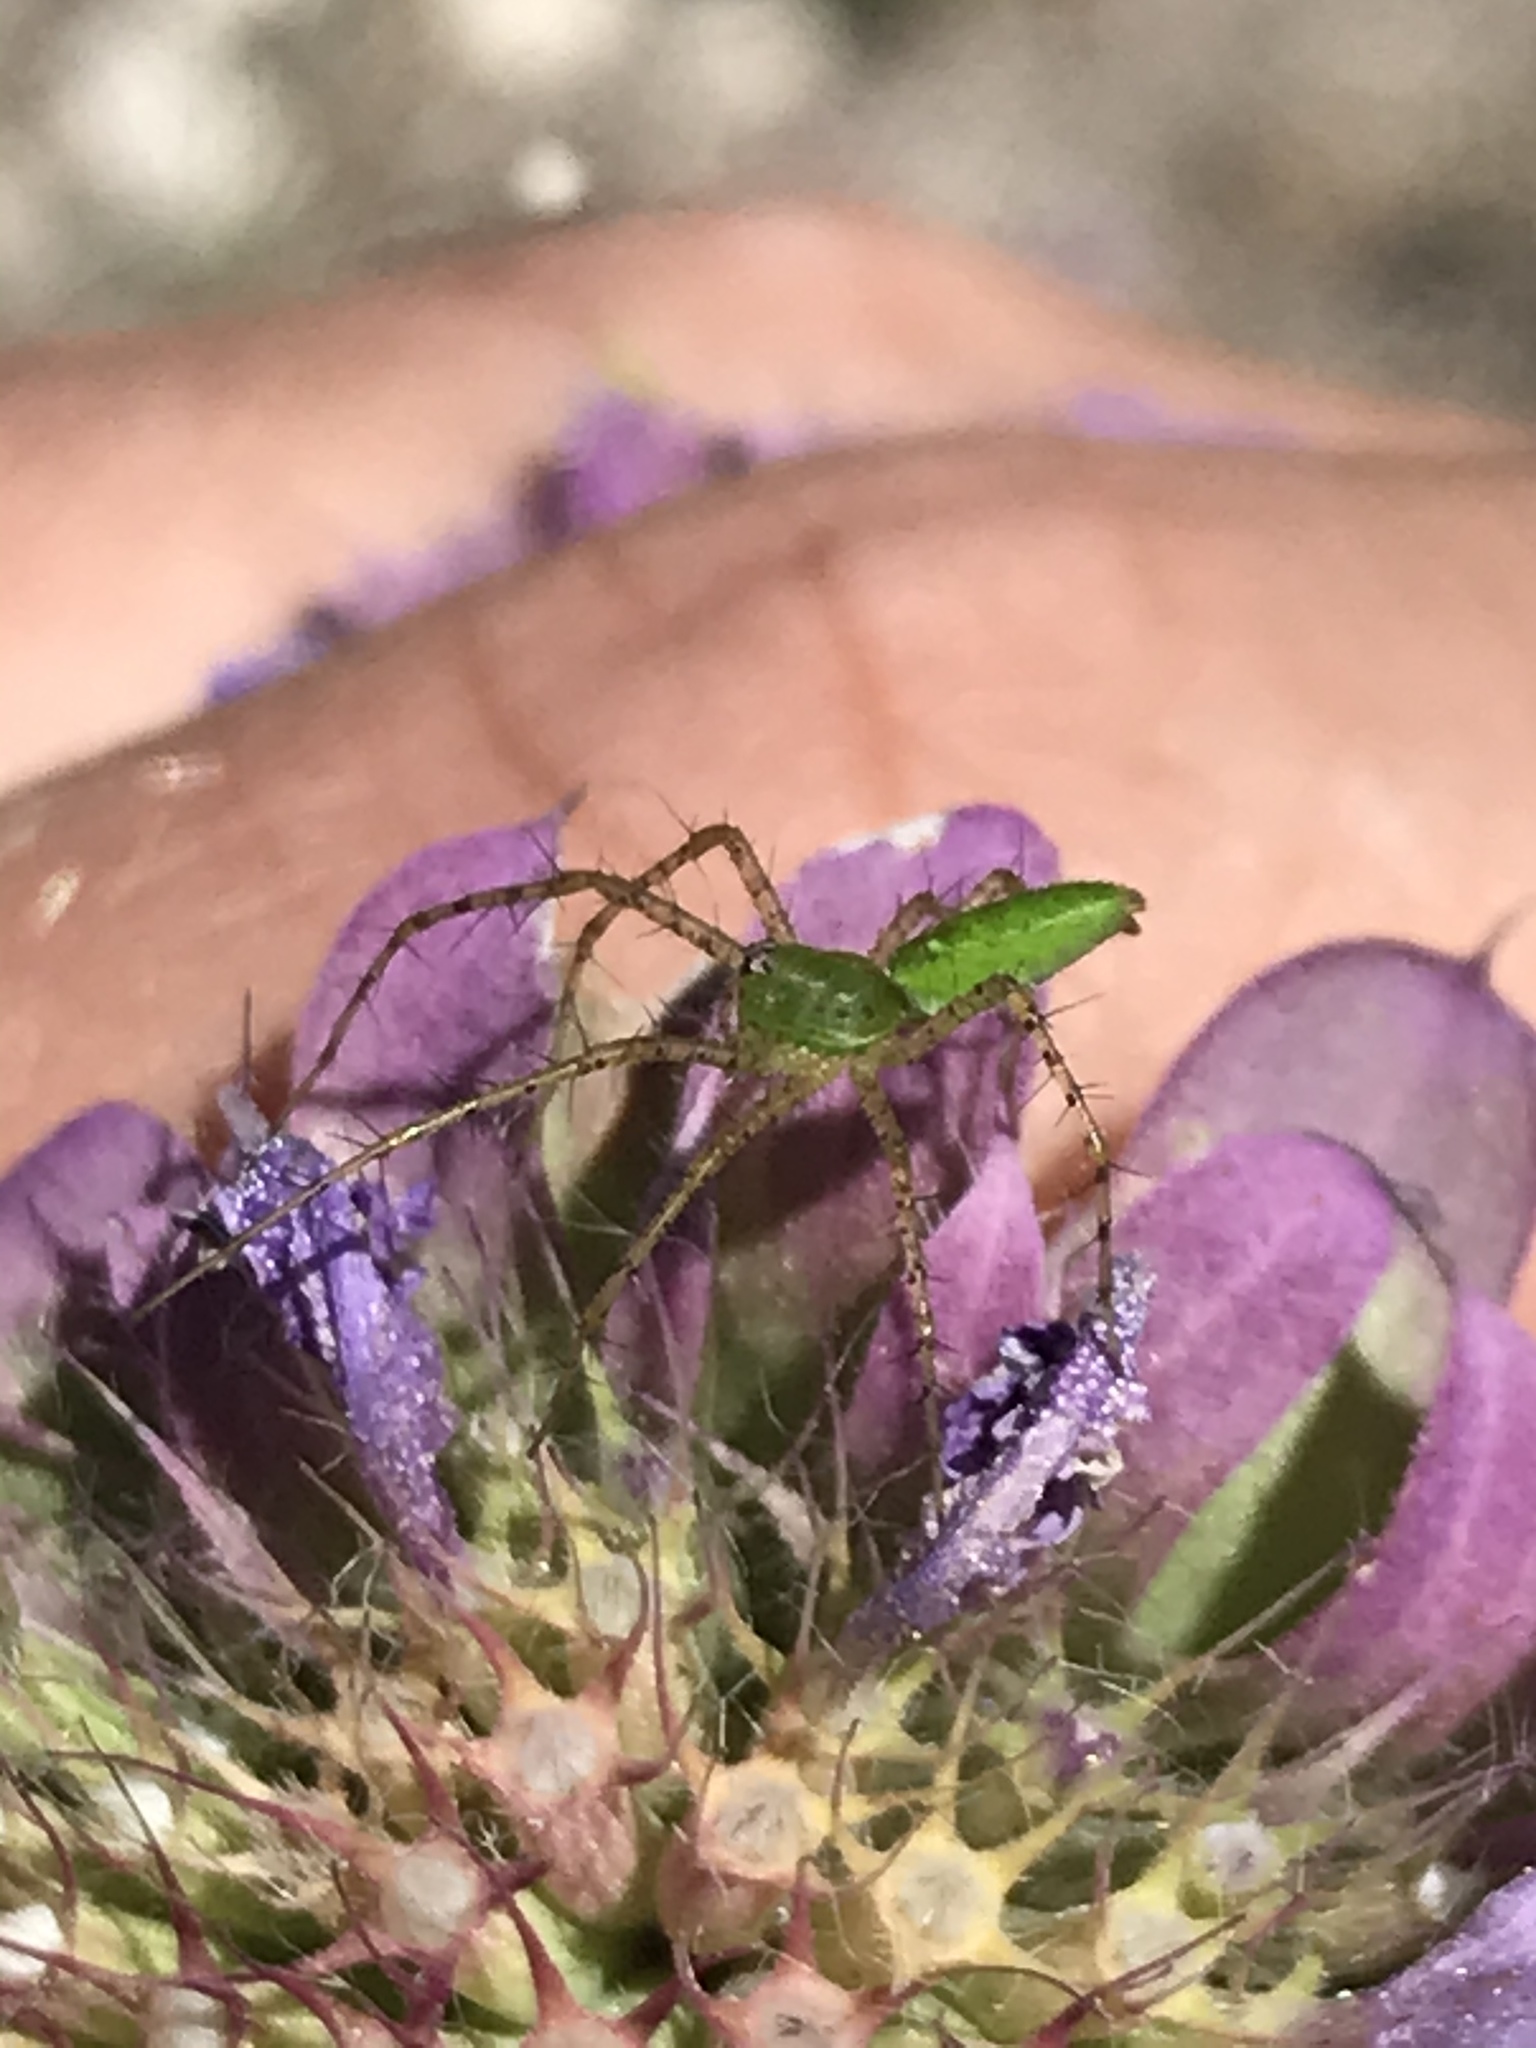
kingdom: Animalia
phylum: Arthropoda
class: Arachnida
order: Araneae
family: Oxyopidae
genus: Peucetia
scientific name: Peucetia viridans
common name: Lynx spiders
